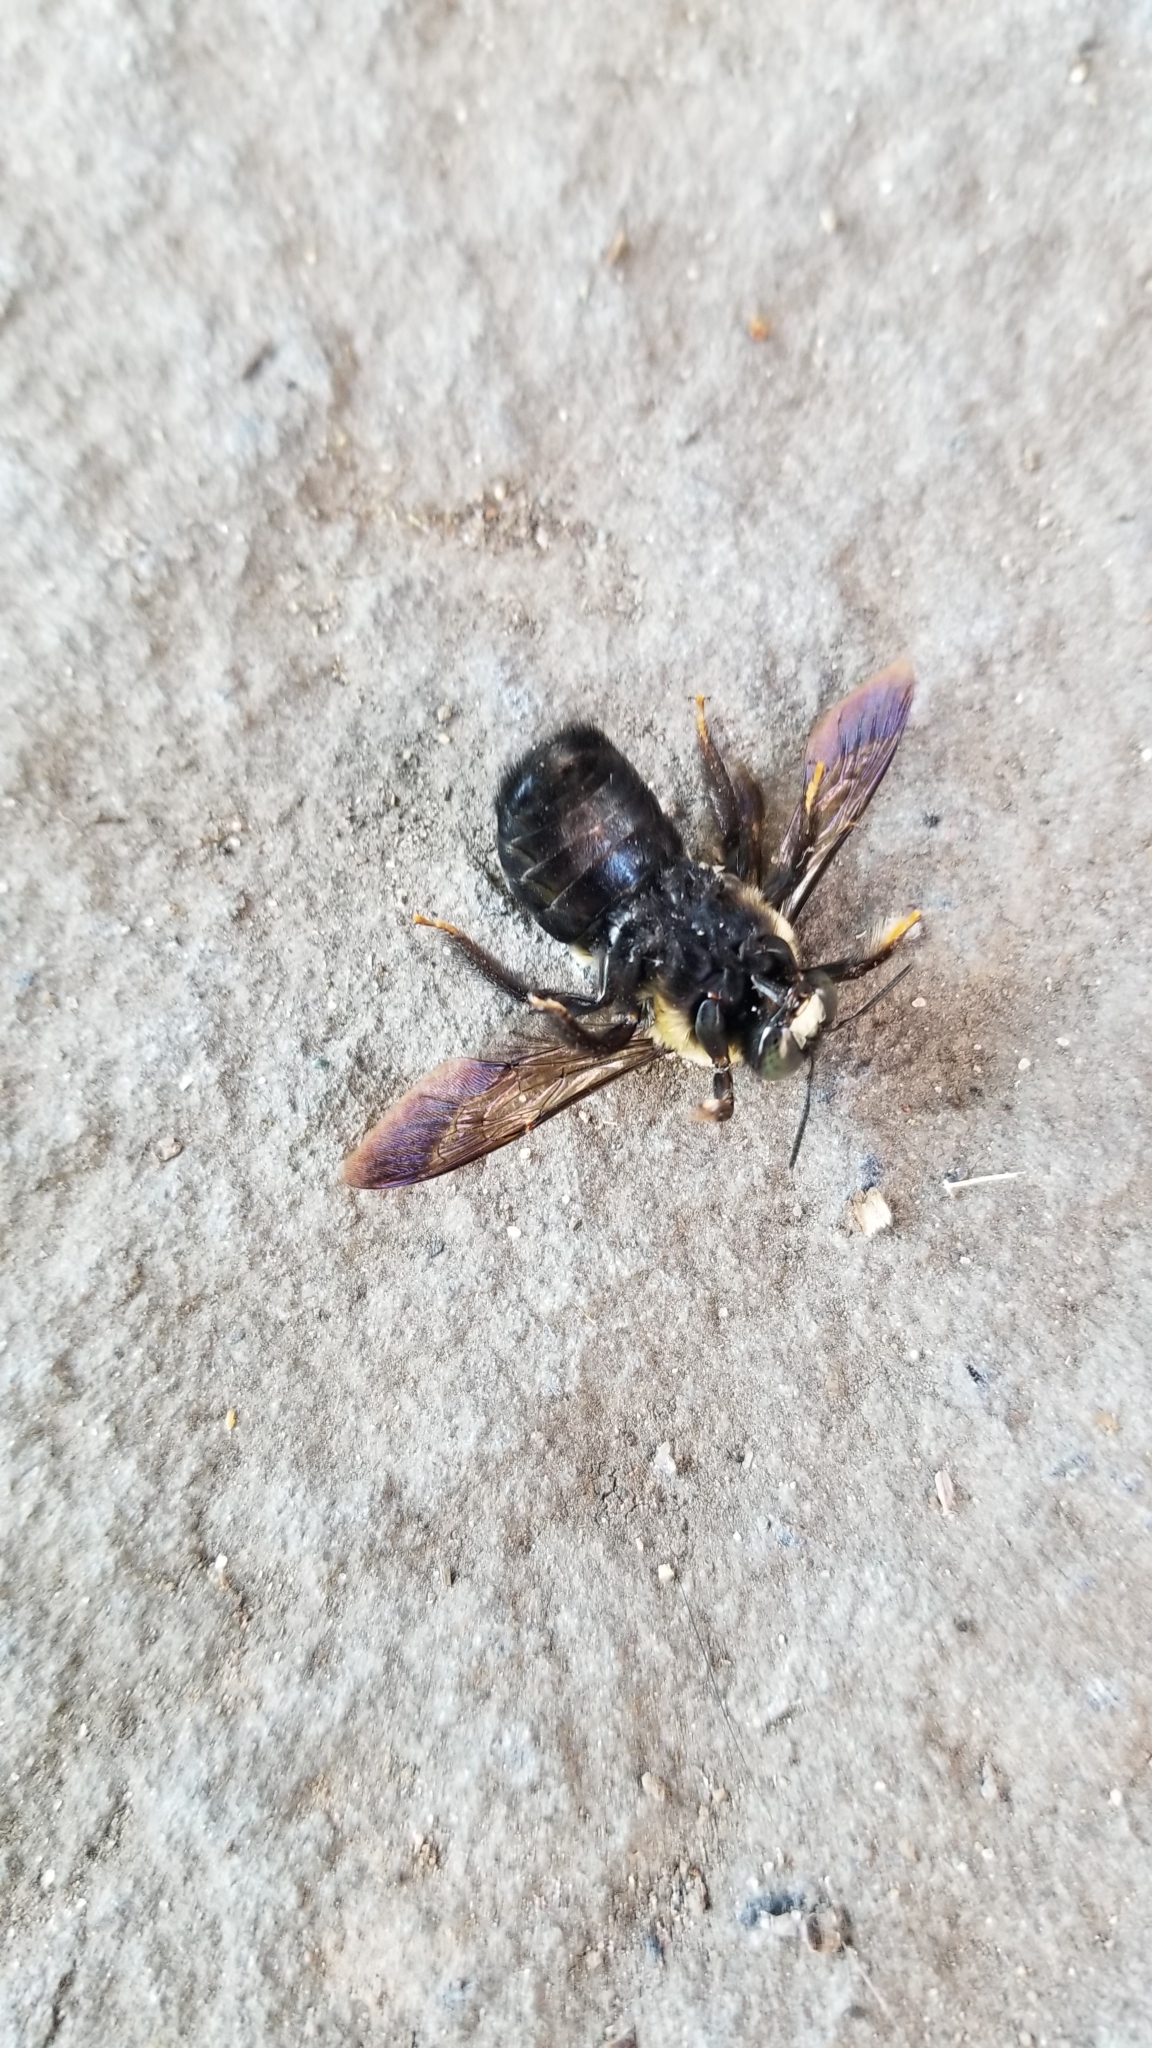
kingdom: Animalia
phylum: Arthropoda
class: Insecta
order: Hymenoptera
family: Apidae
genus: Xylocopa
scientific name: Xylocopa virginica
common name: Carpenter bee
